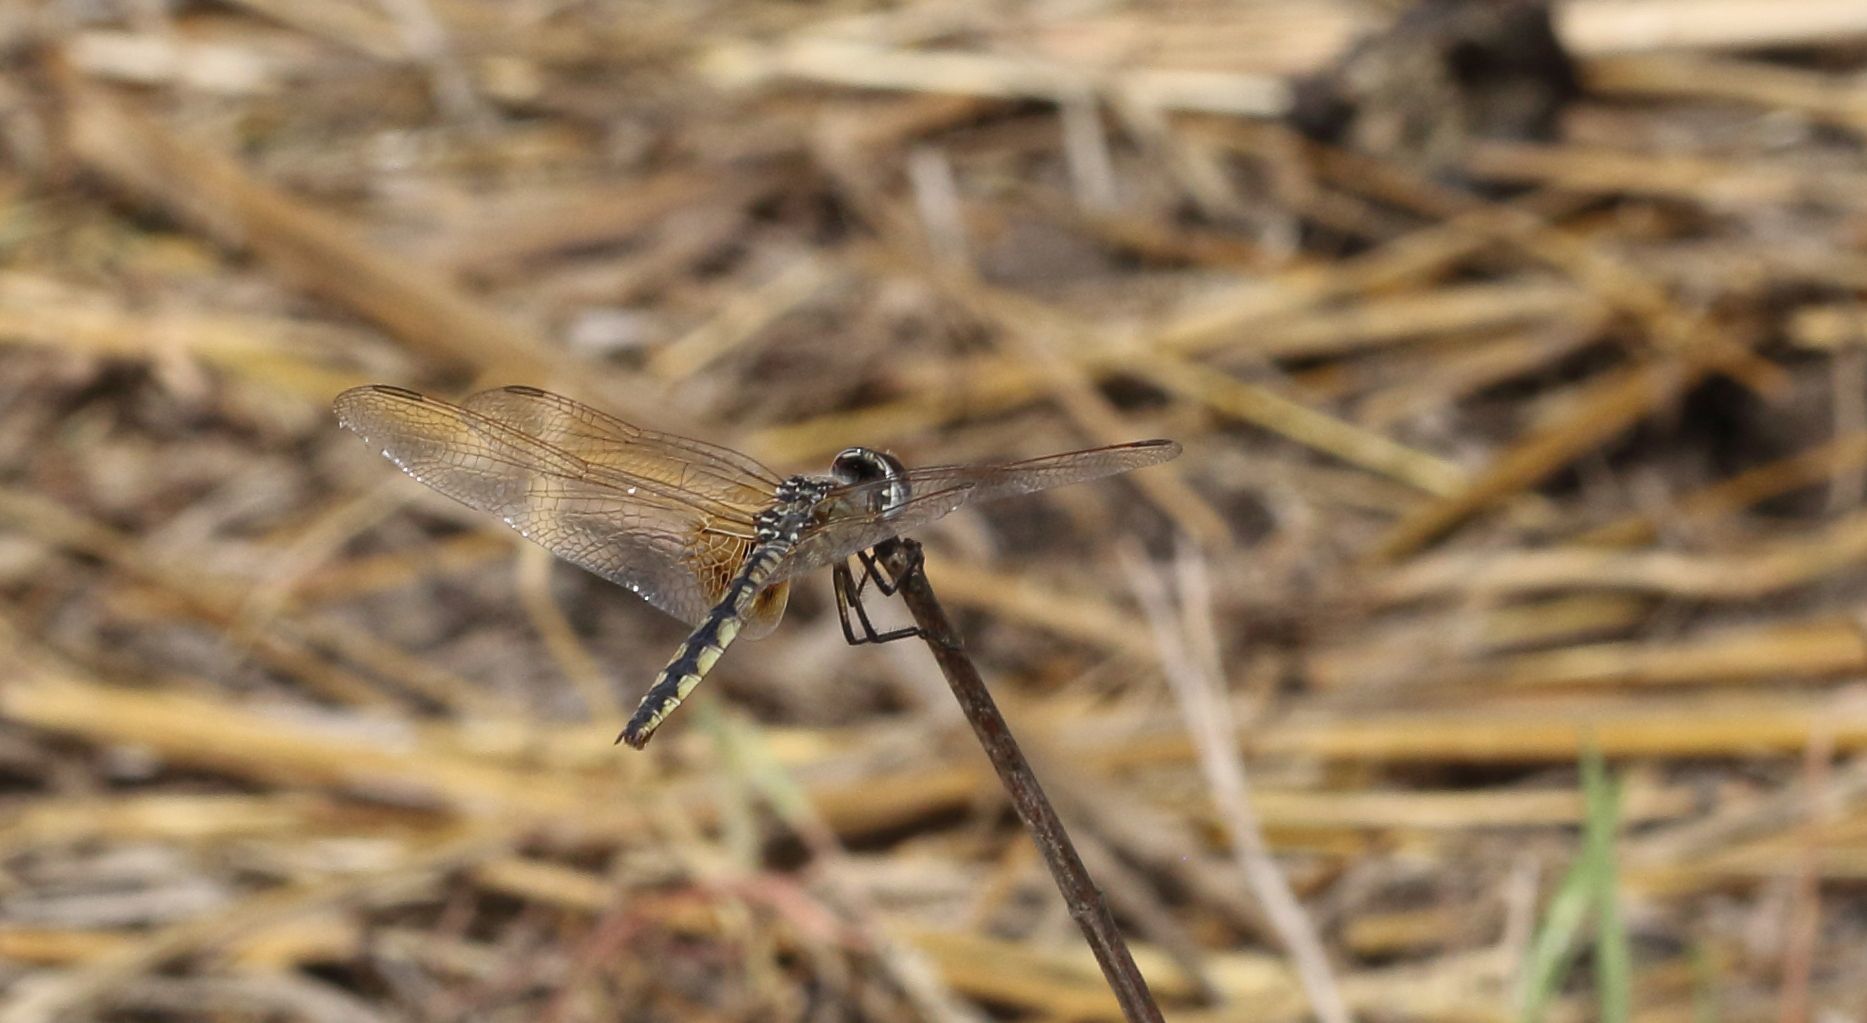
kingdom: Animalia
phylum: Arthropoda
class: Insecta
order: Odonata
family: Libellulidae
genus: Urothemis
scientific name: Urothemis edwardsii
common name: Blue basker
